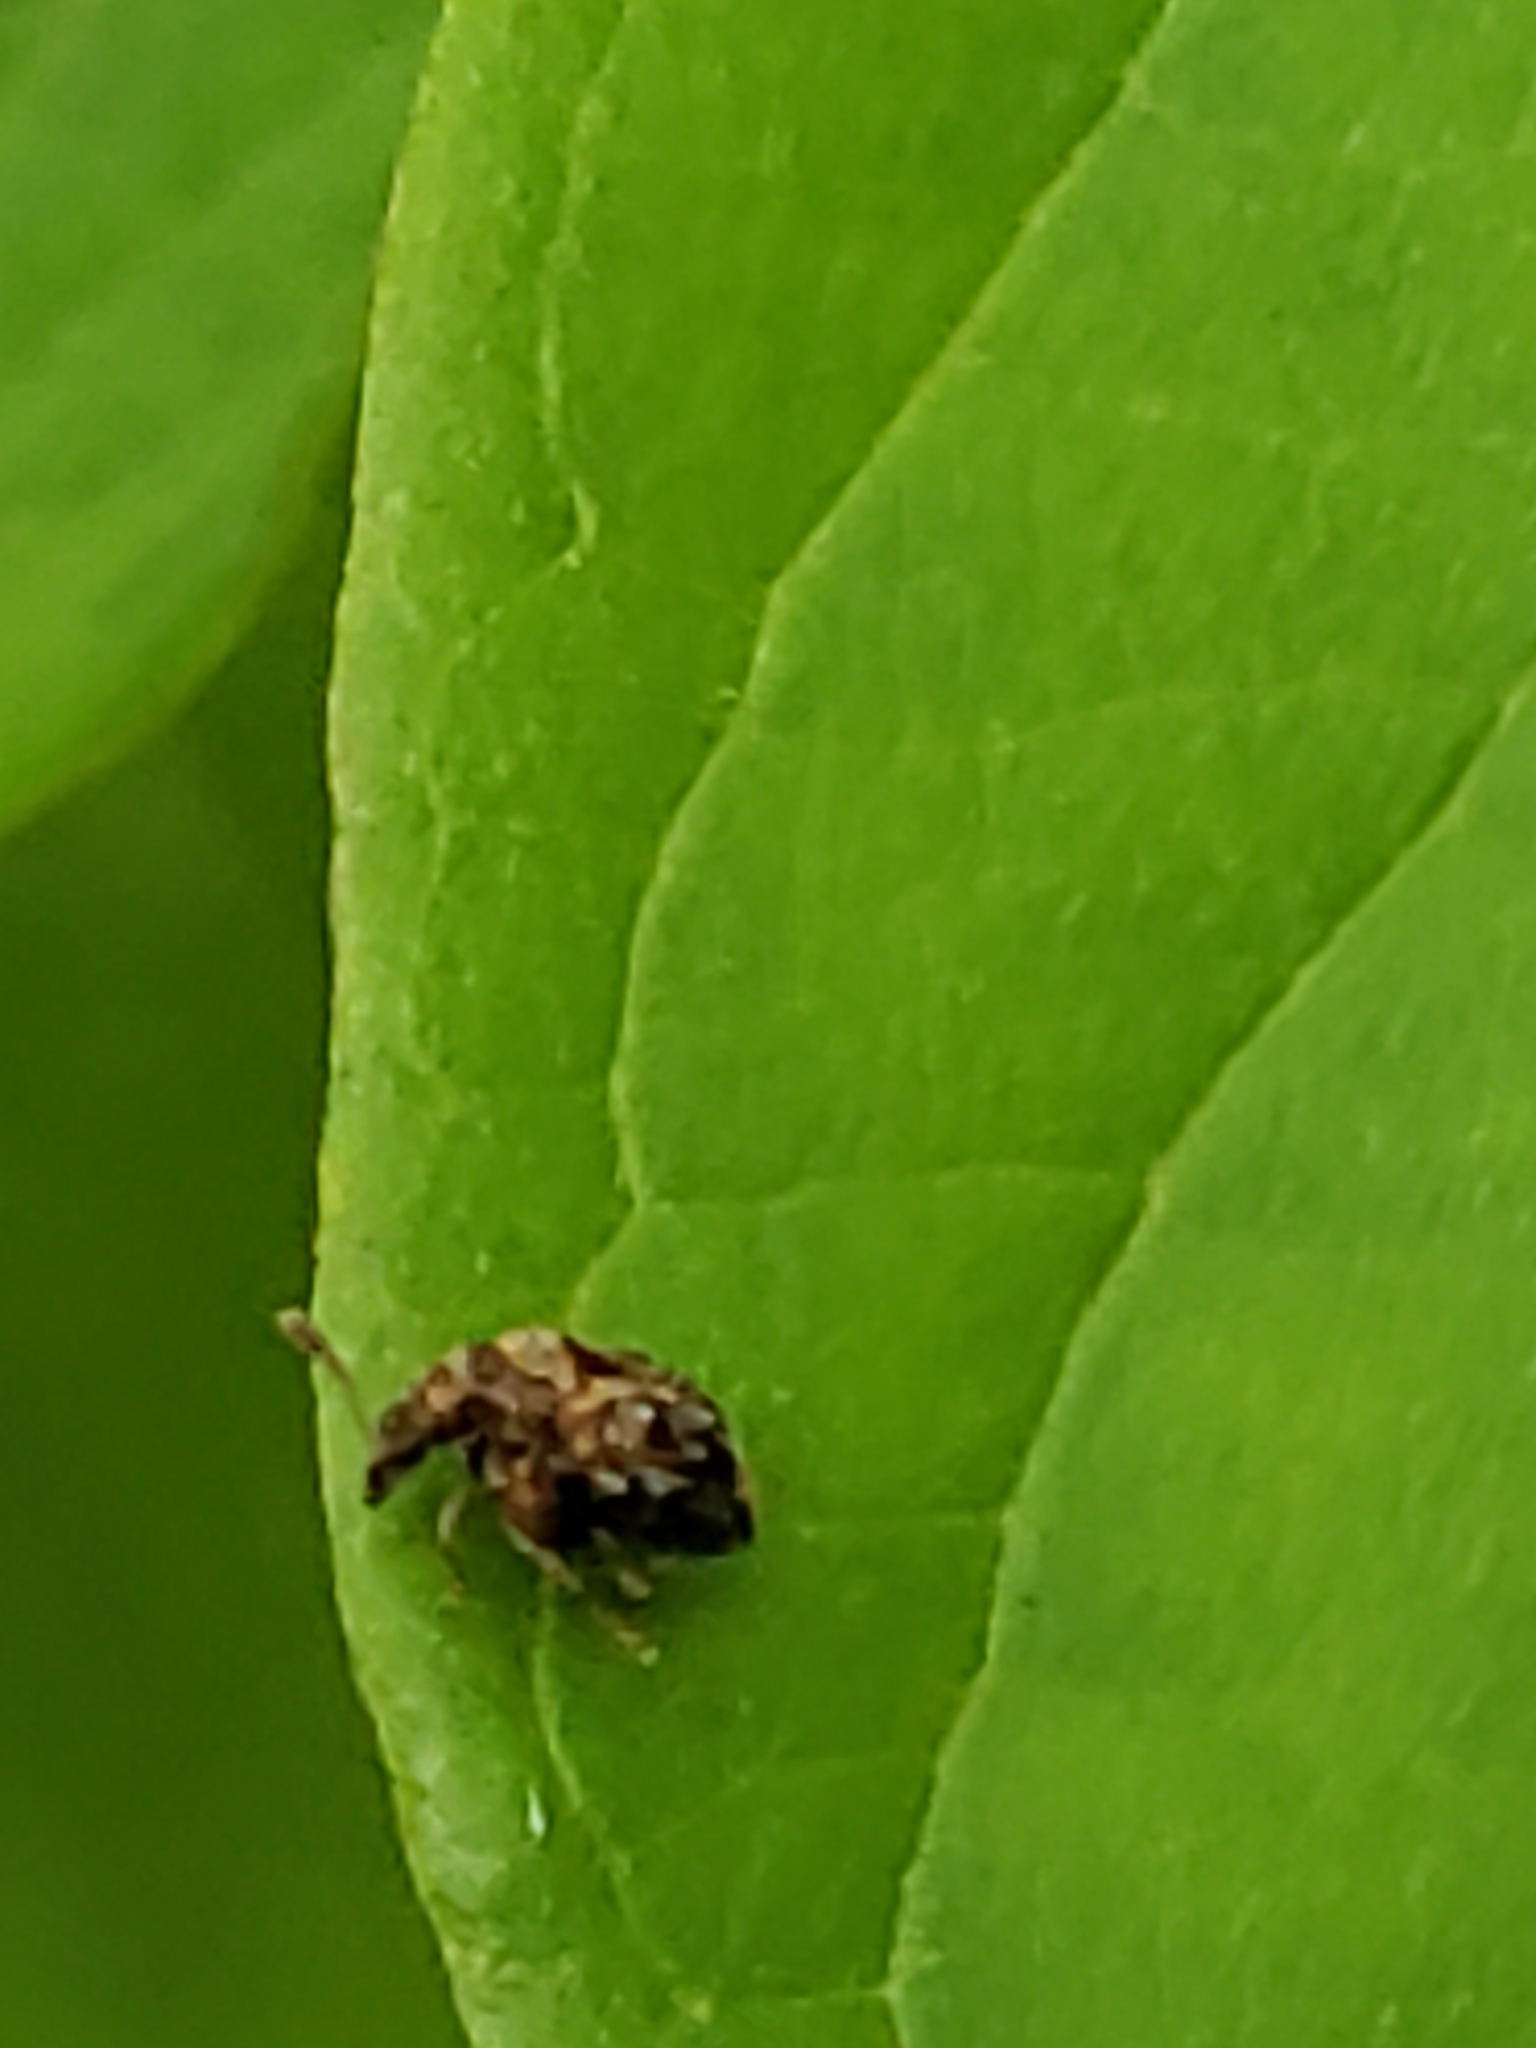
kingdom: Animalia
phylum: Arthropoda
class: Insecta
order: Coleoptera
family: Chrysomelidae
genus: Gibbobruchus
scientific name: Gibbobruchus mimus
